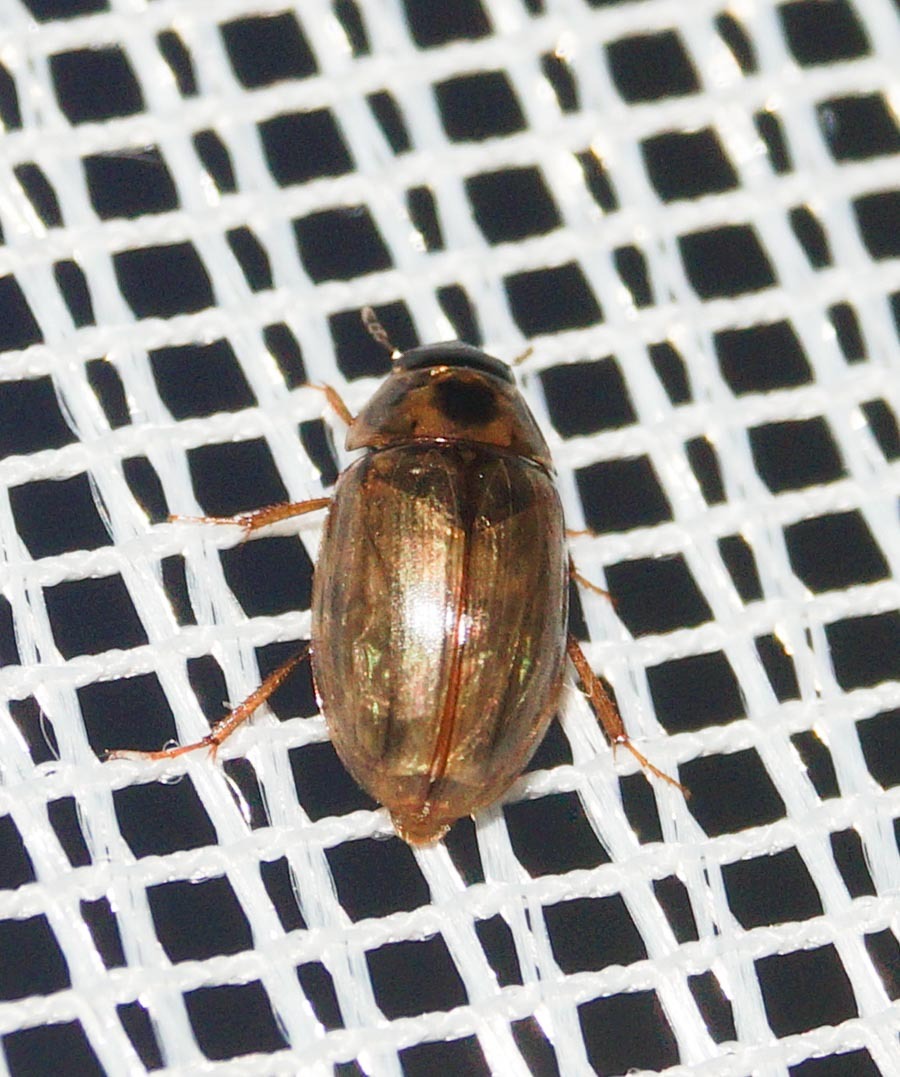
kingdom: Animalia
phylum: Arthropoda
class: Insecta
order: Coleoptera
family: Hydrophilidae
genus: Enochrus
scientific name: Enochrus quadripunctatus
